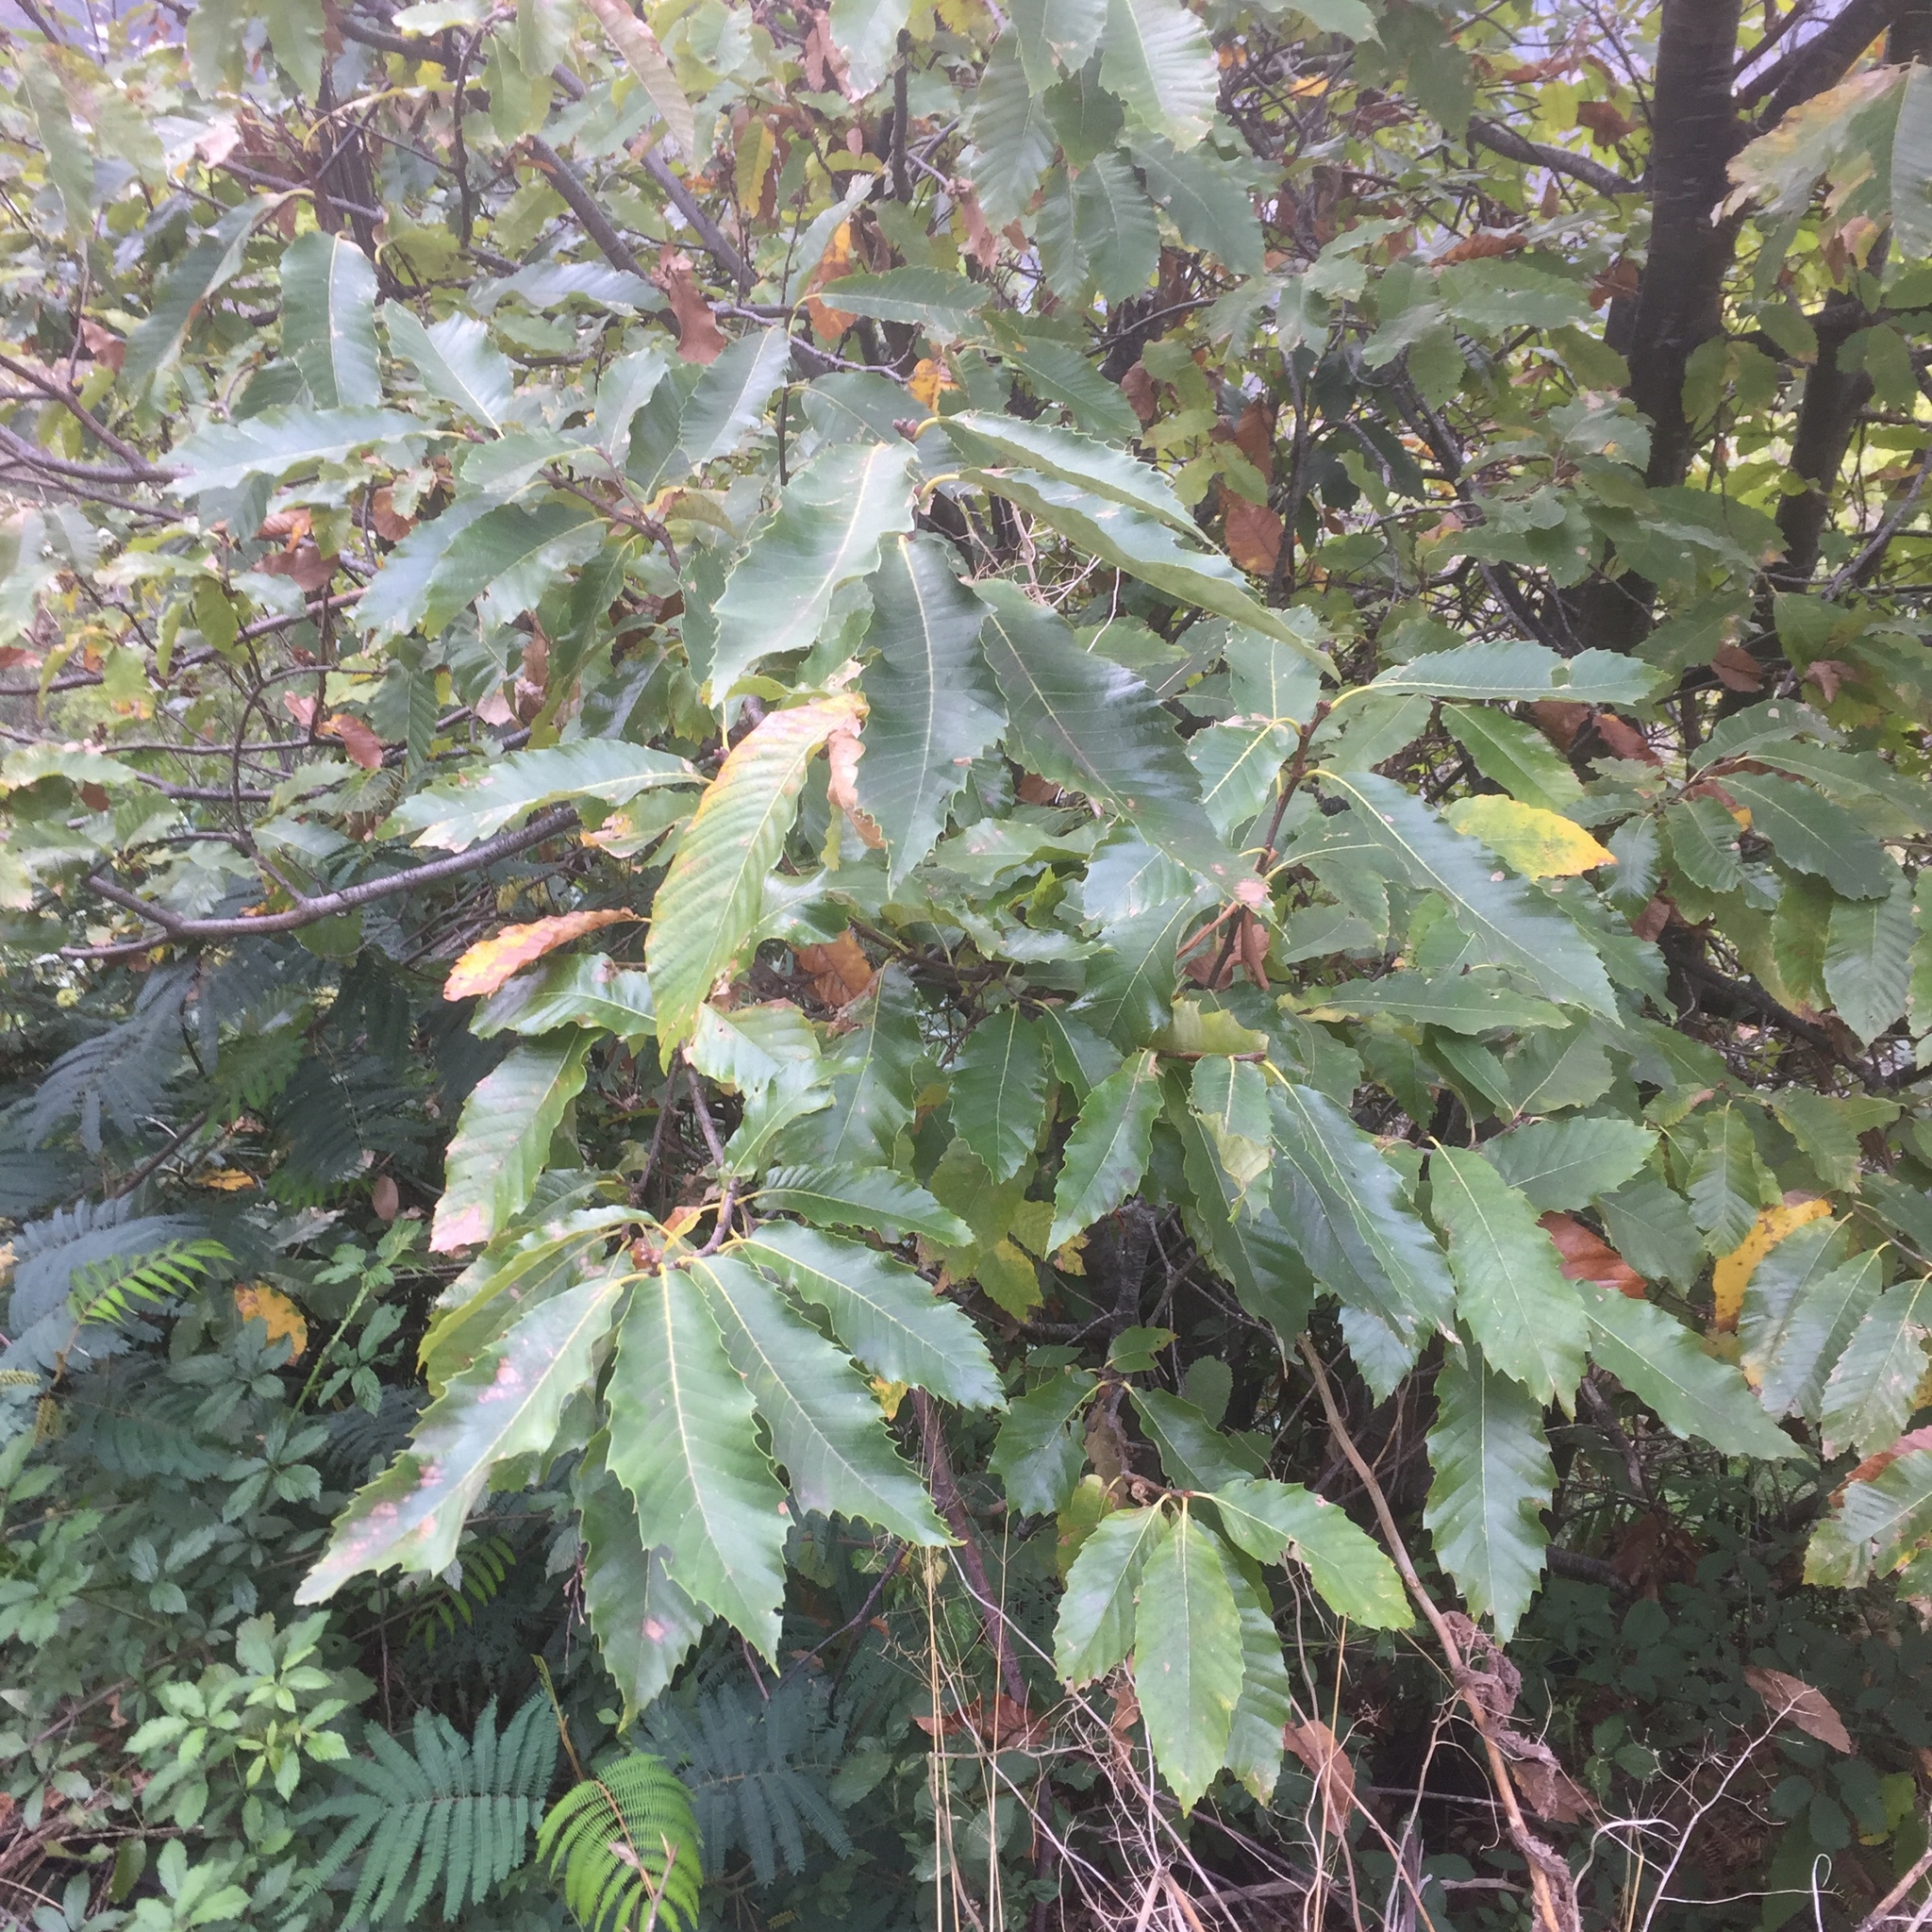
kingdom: Plantae
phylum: Tracheophyta
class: Magnoliopsida
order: Fagales
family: Fagaceae
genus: Castanea
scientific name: Castanea sativa
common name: Sweet chestnut
